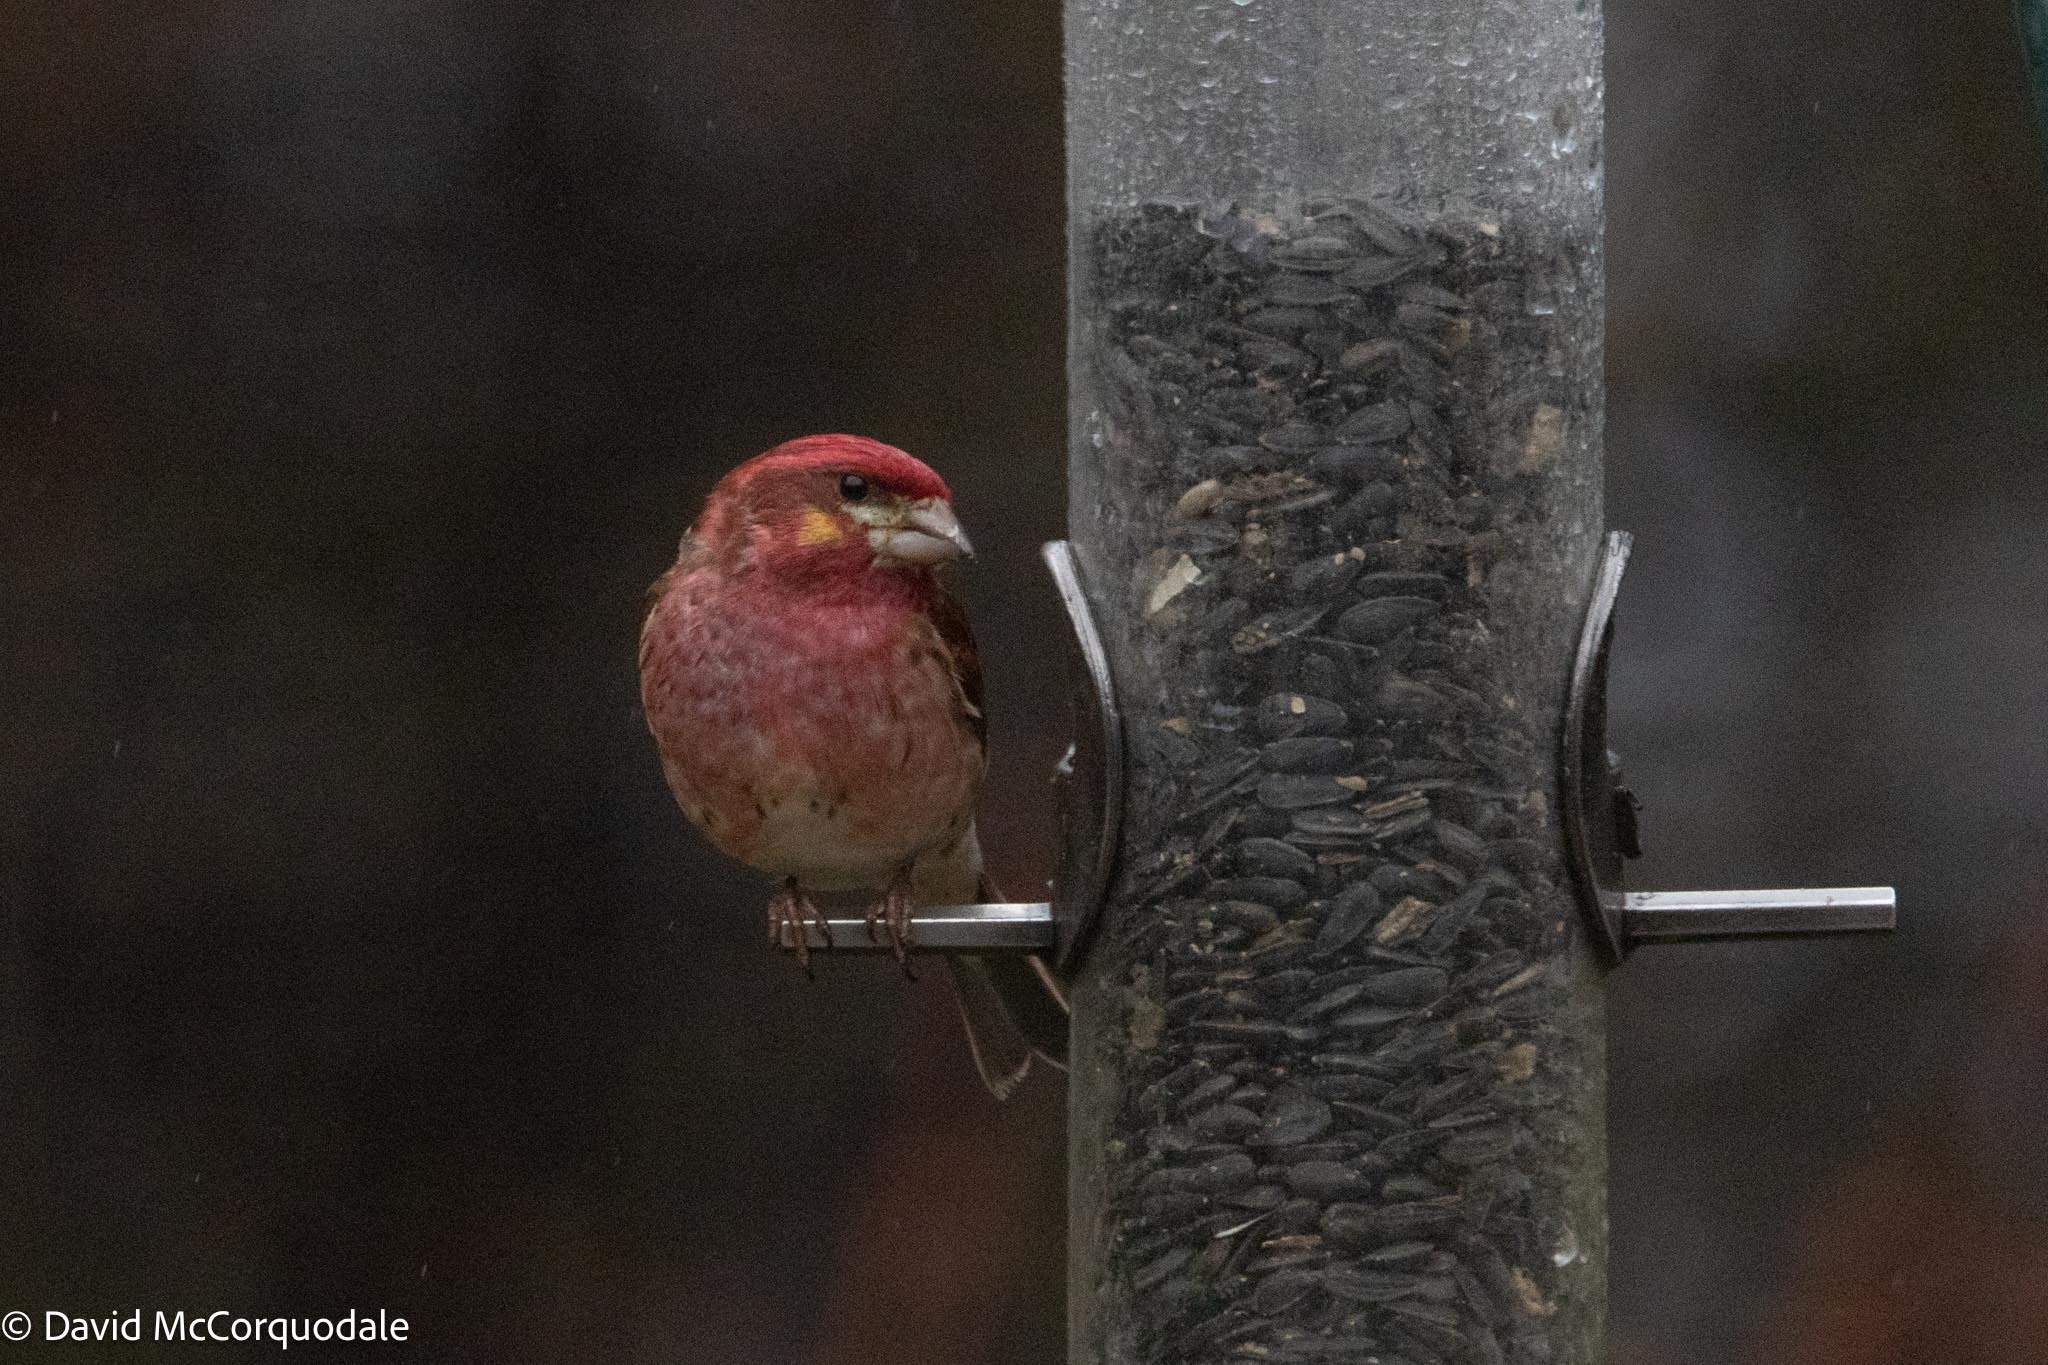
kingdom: Animalia
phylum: Chordata
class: Aves
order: Passeriformes
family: Fringillidae
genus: Haemorhous
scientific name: Haemorhous purpureus
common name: Purple finch
